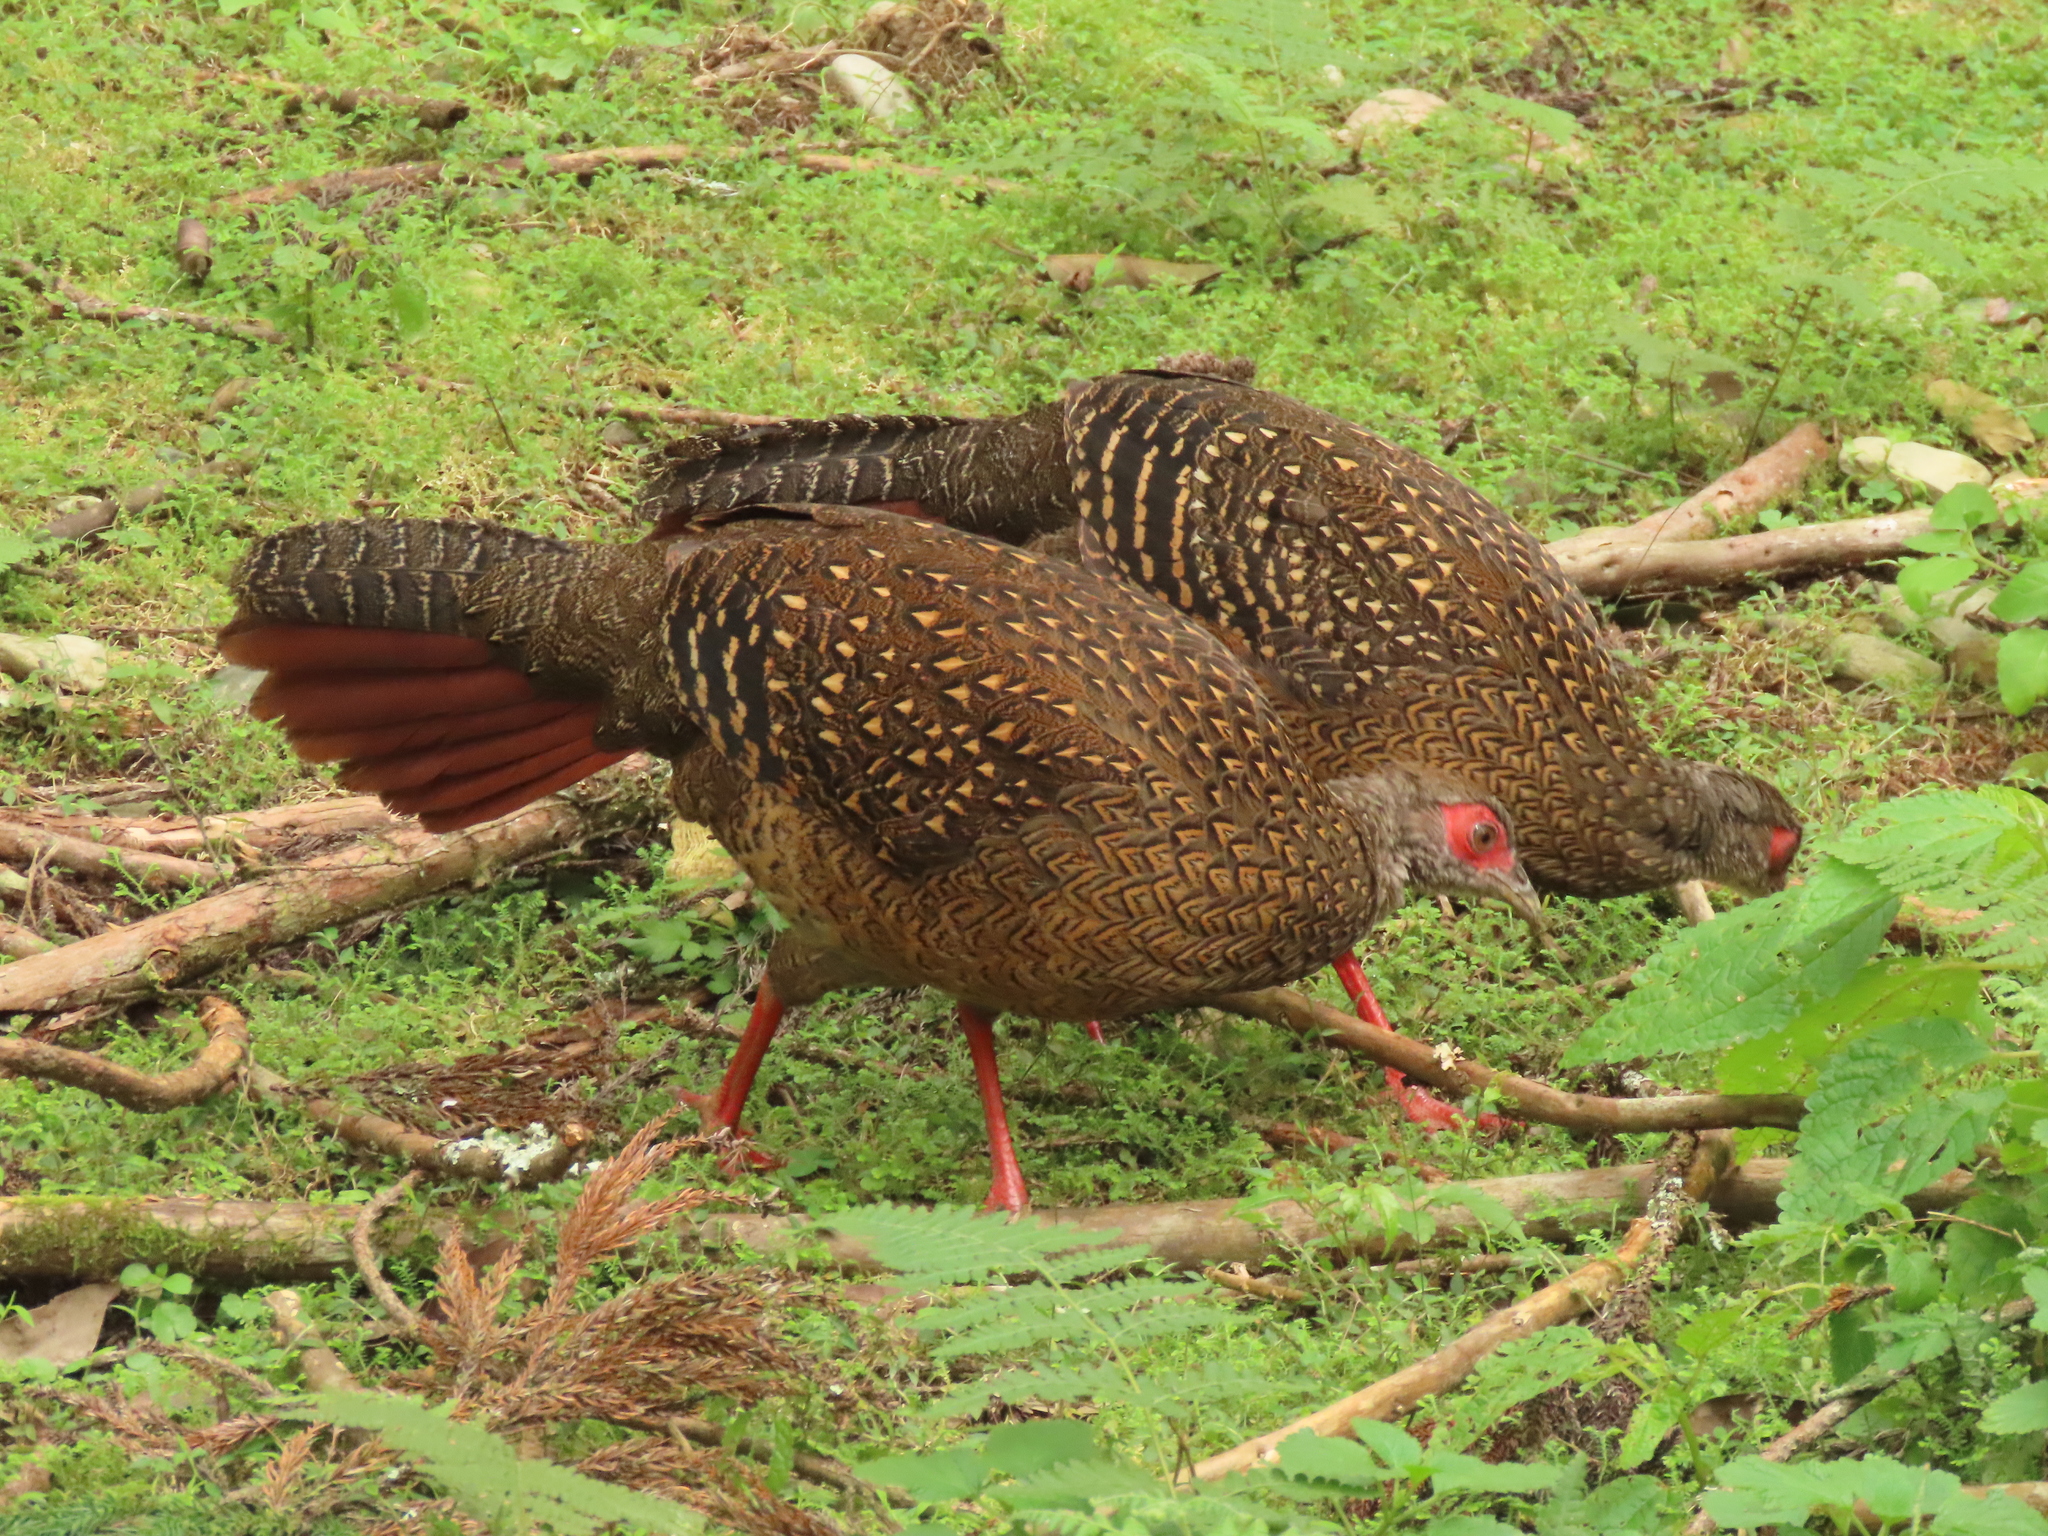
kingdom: Animalia
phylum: Chordata
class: Aves
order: Galliformes
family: Phasianidae
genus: Lophura
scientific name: Lophura swinhoii
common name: Swinhoe's pheasant
